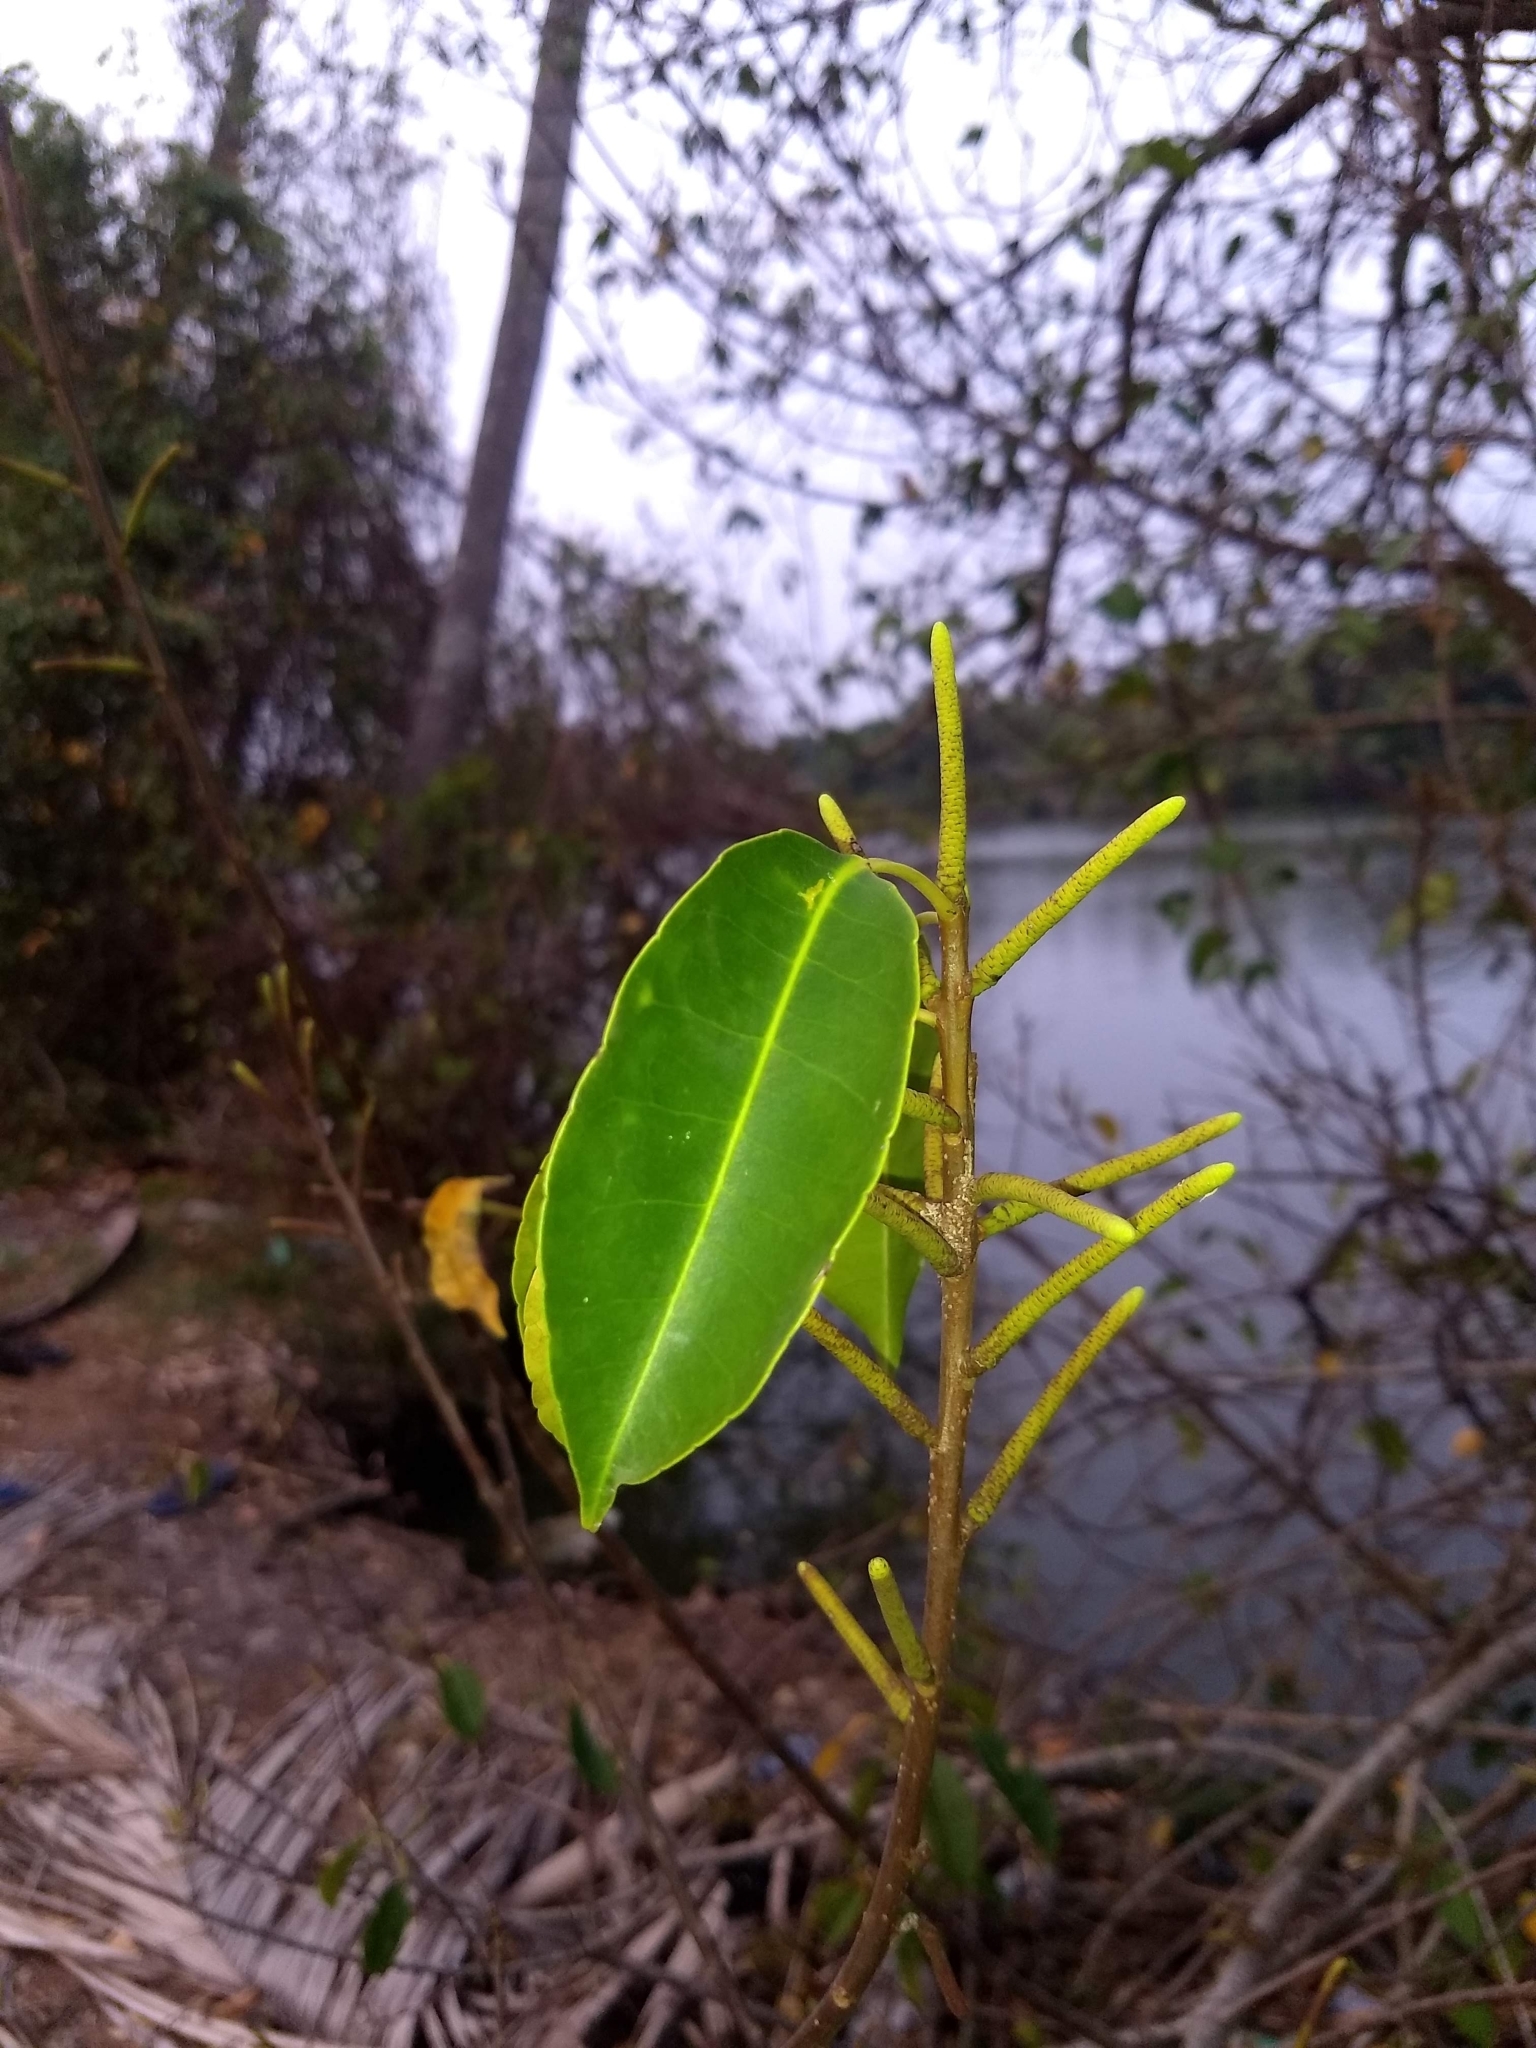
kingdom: Plantae
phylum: Tracheophyta
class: Magnoliopsida
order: Malpighiales
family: Euphorbiaceae
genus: Excoecaria
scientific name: Excoecaria agallocha
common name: River poisontree
